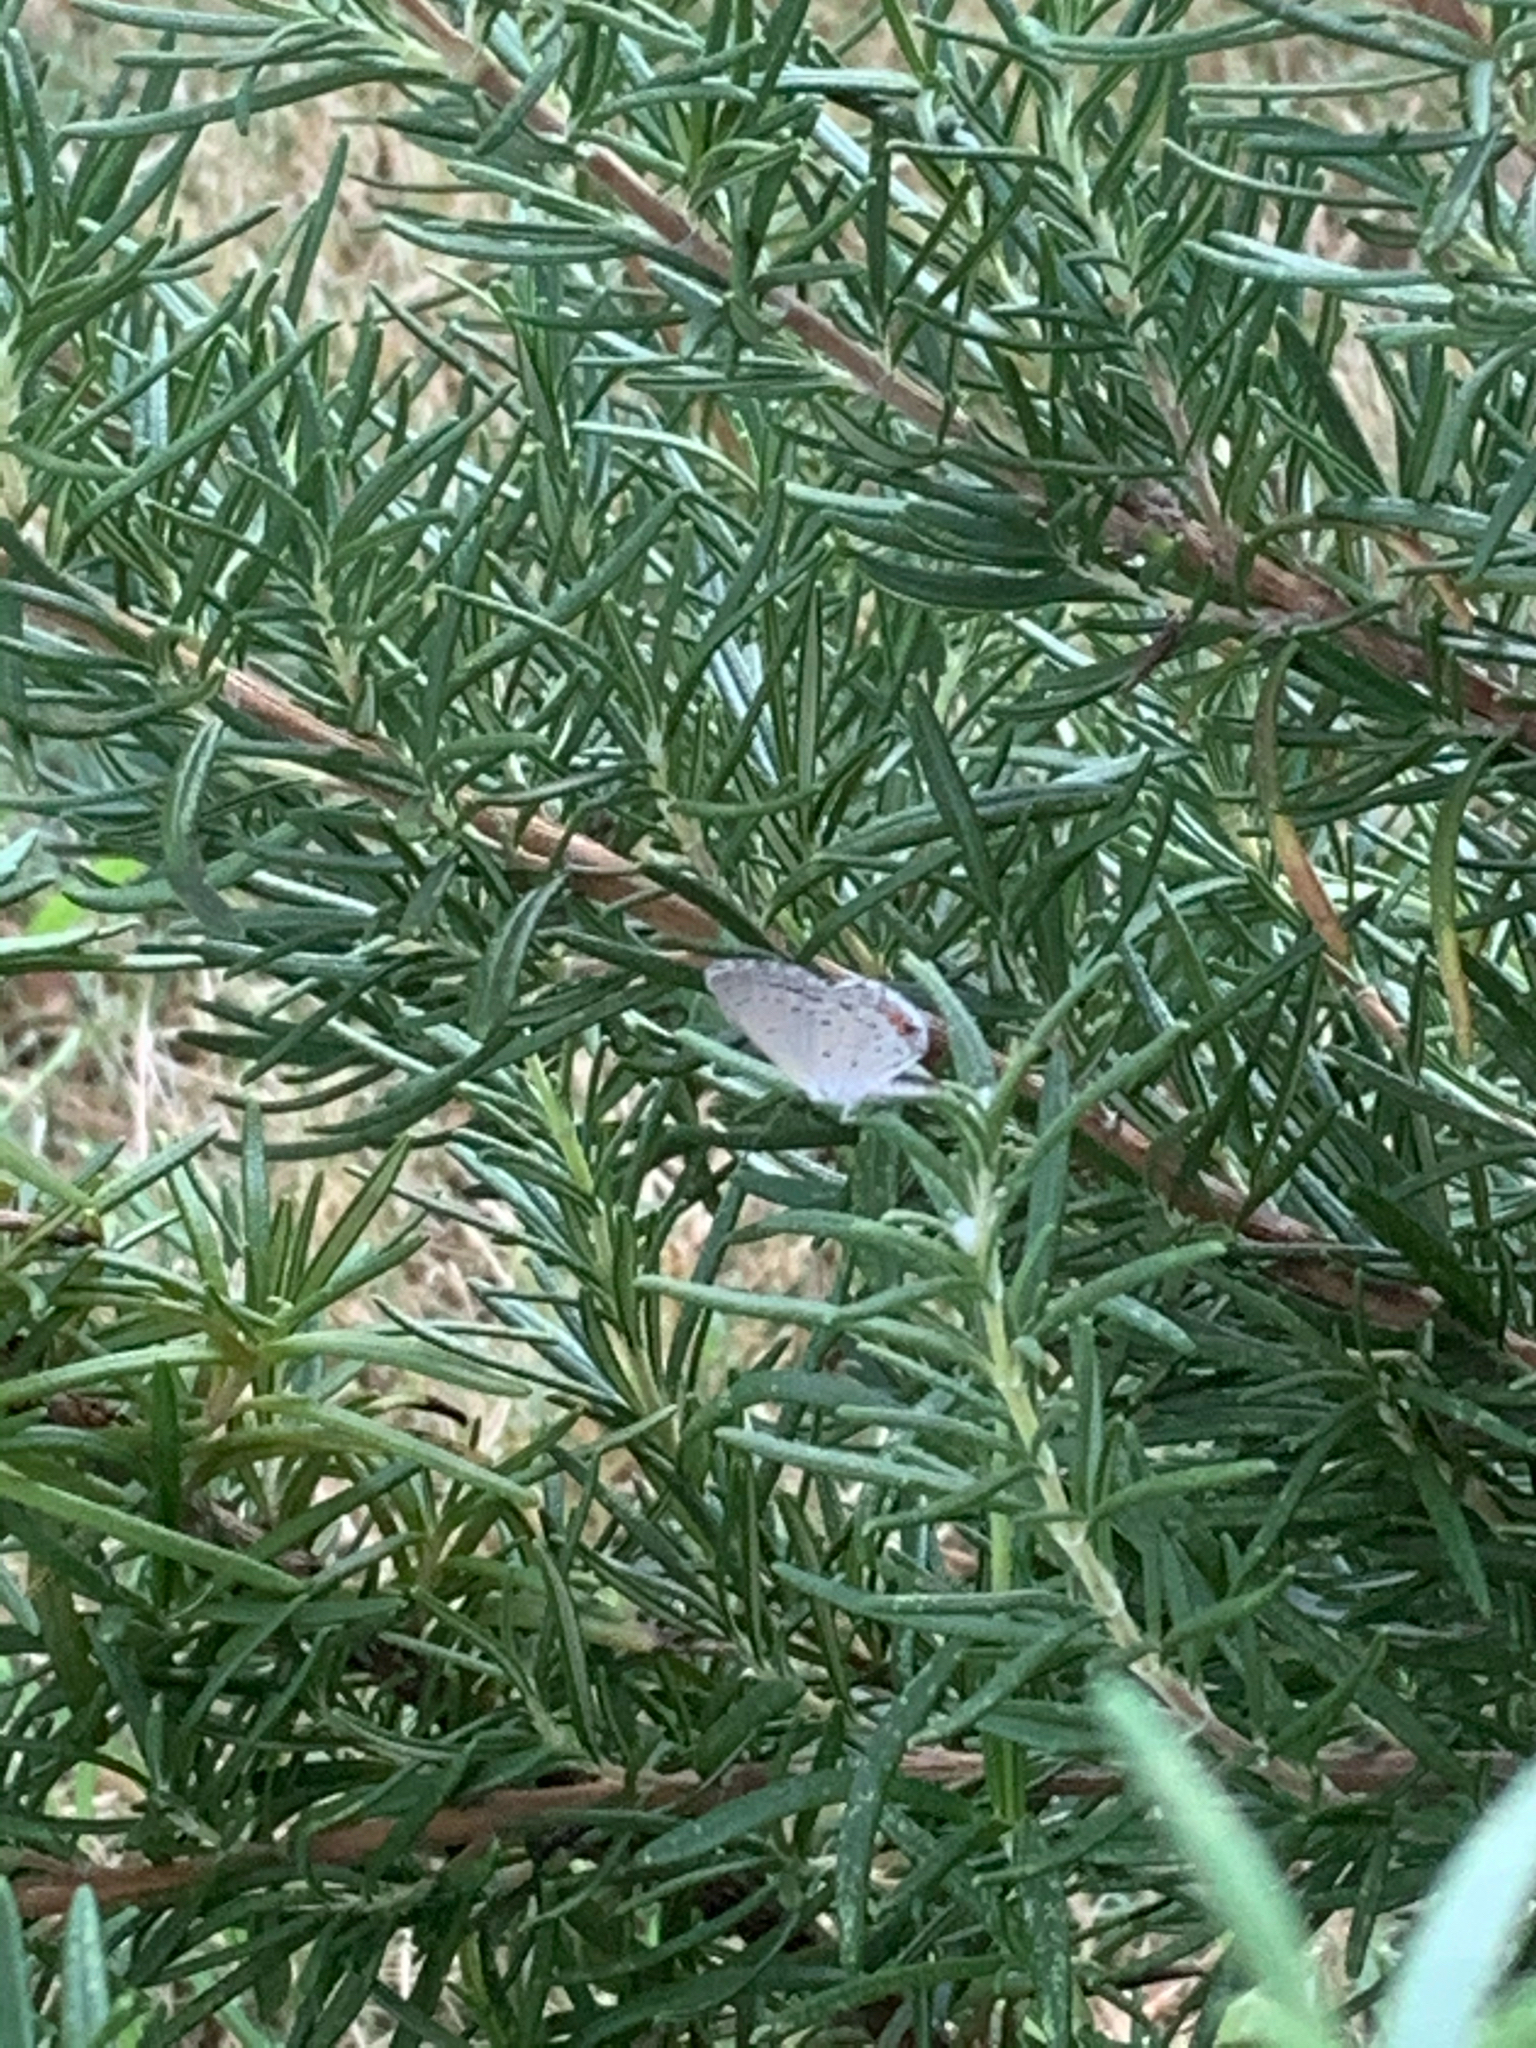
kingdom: Animalia
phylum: Arthropoda
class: Insecta
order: Lepidoptera
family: Lycaenidae
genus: Elkalyce
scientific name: Elkalyce comyntas
